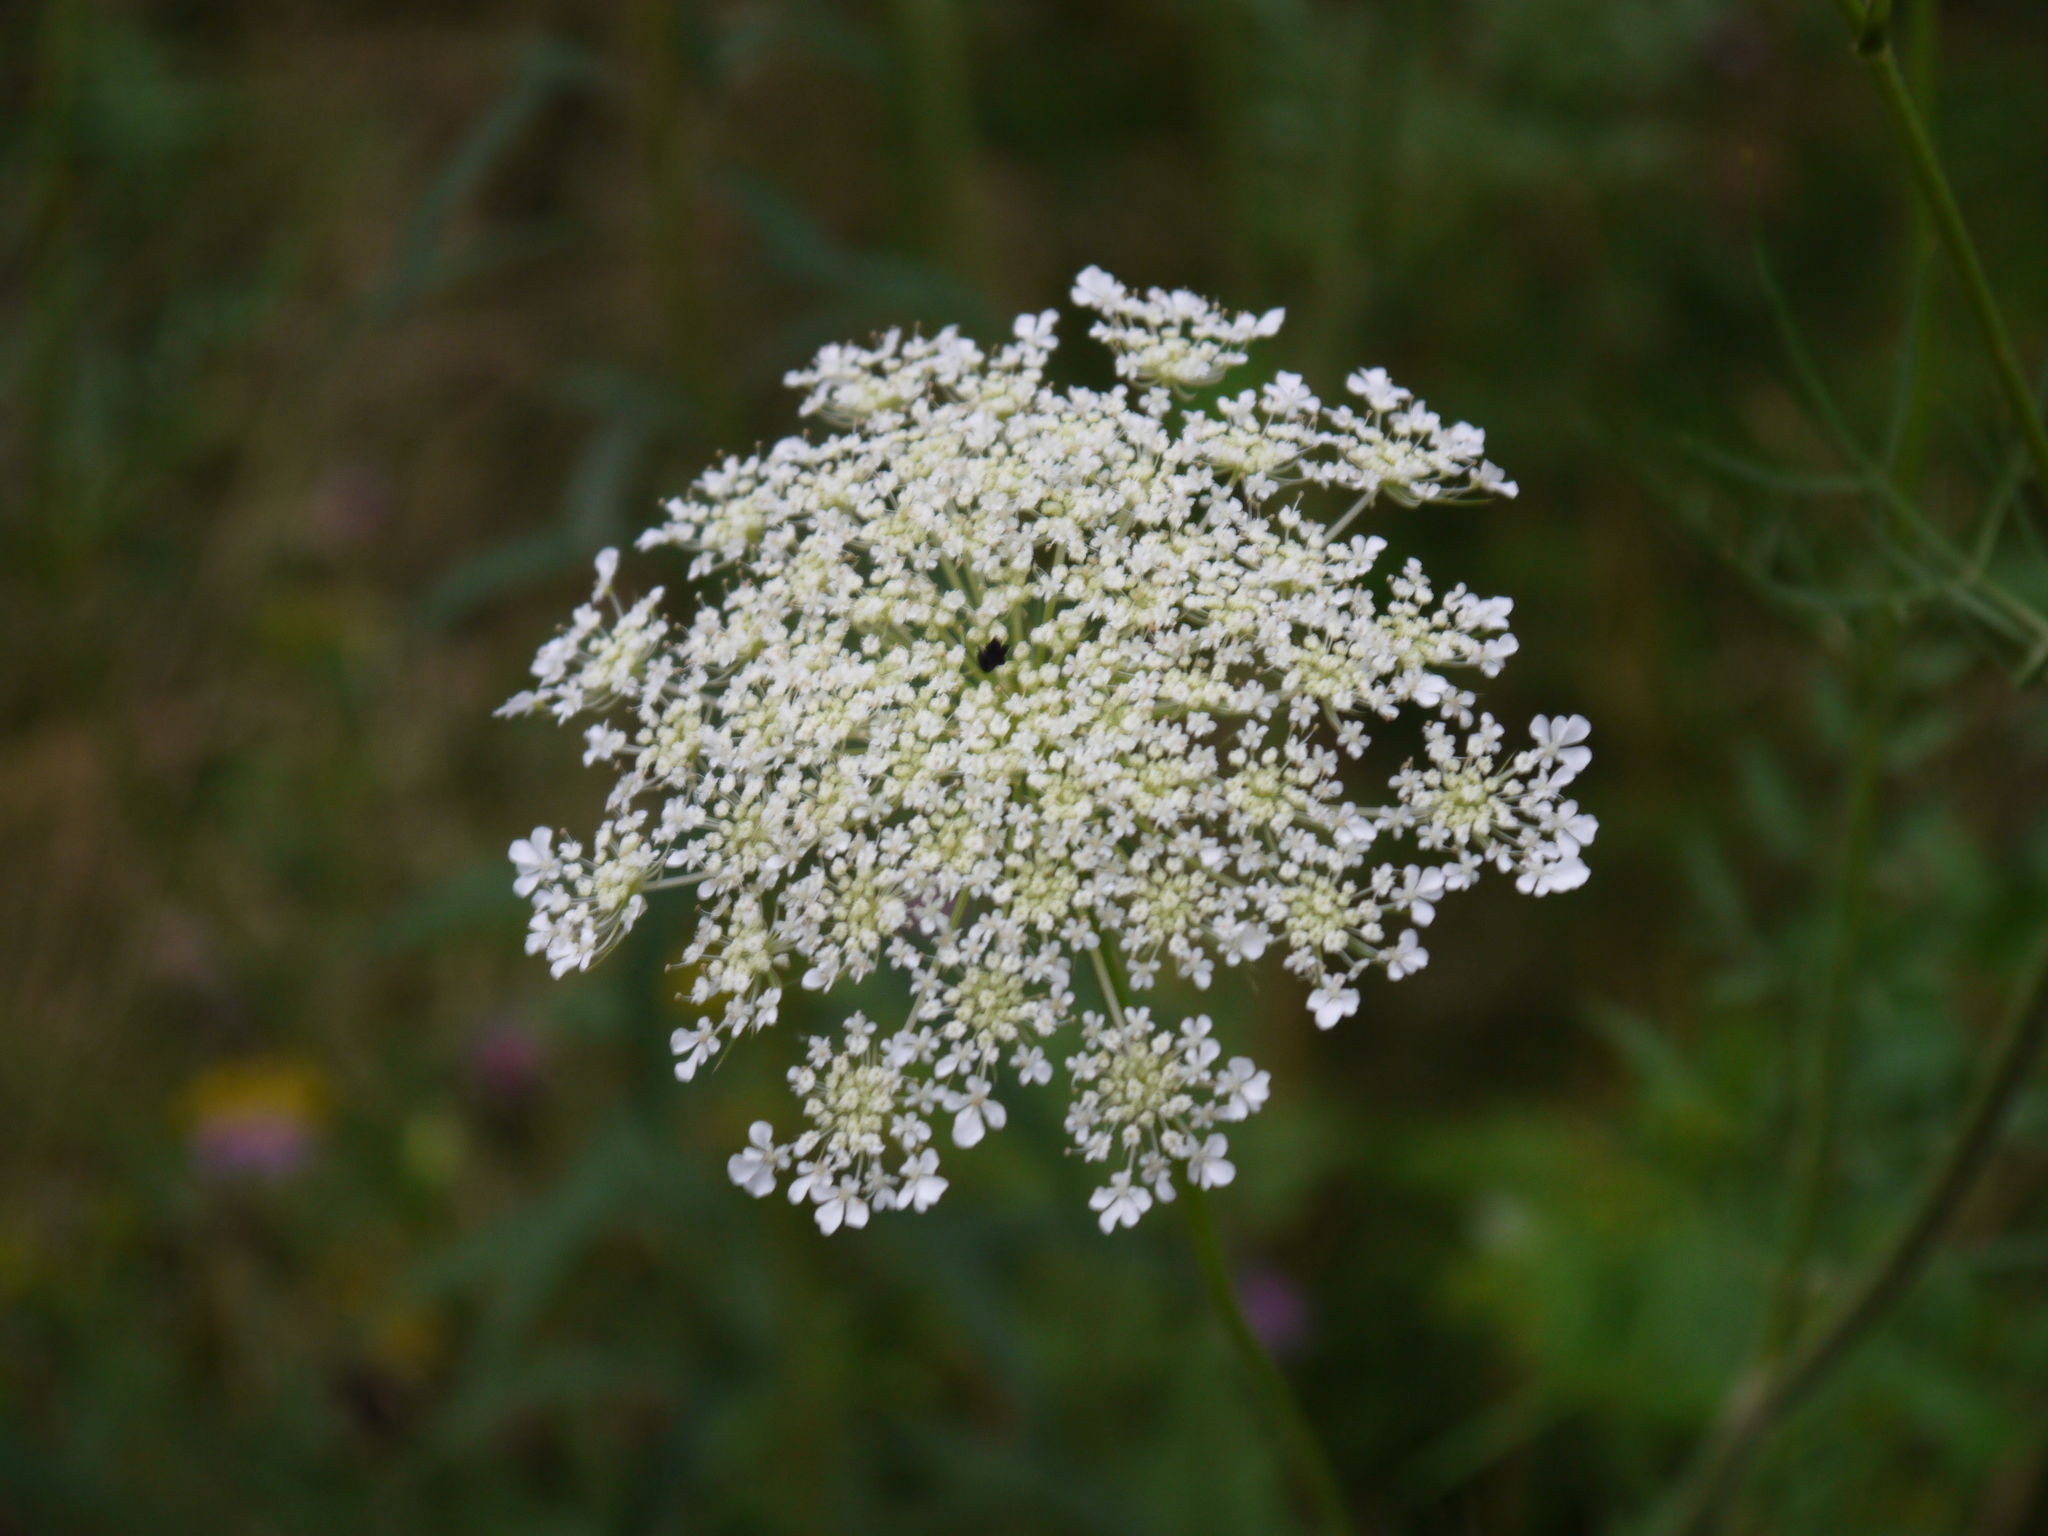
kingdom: Plantae
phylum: Tracheophyta
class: Magnoliopsida
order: Apiales
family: Apiaceae
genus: Daucus
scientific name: Daucus carota
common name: Wild carrot
